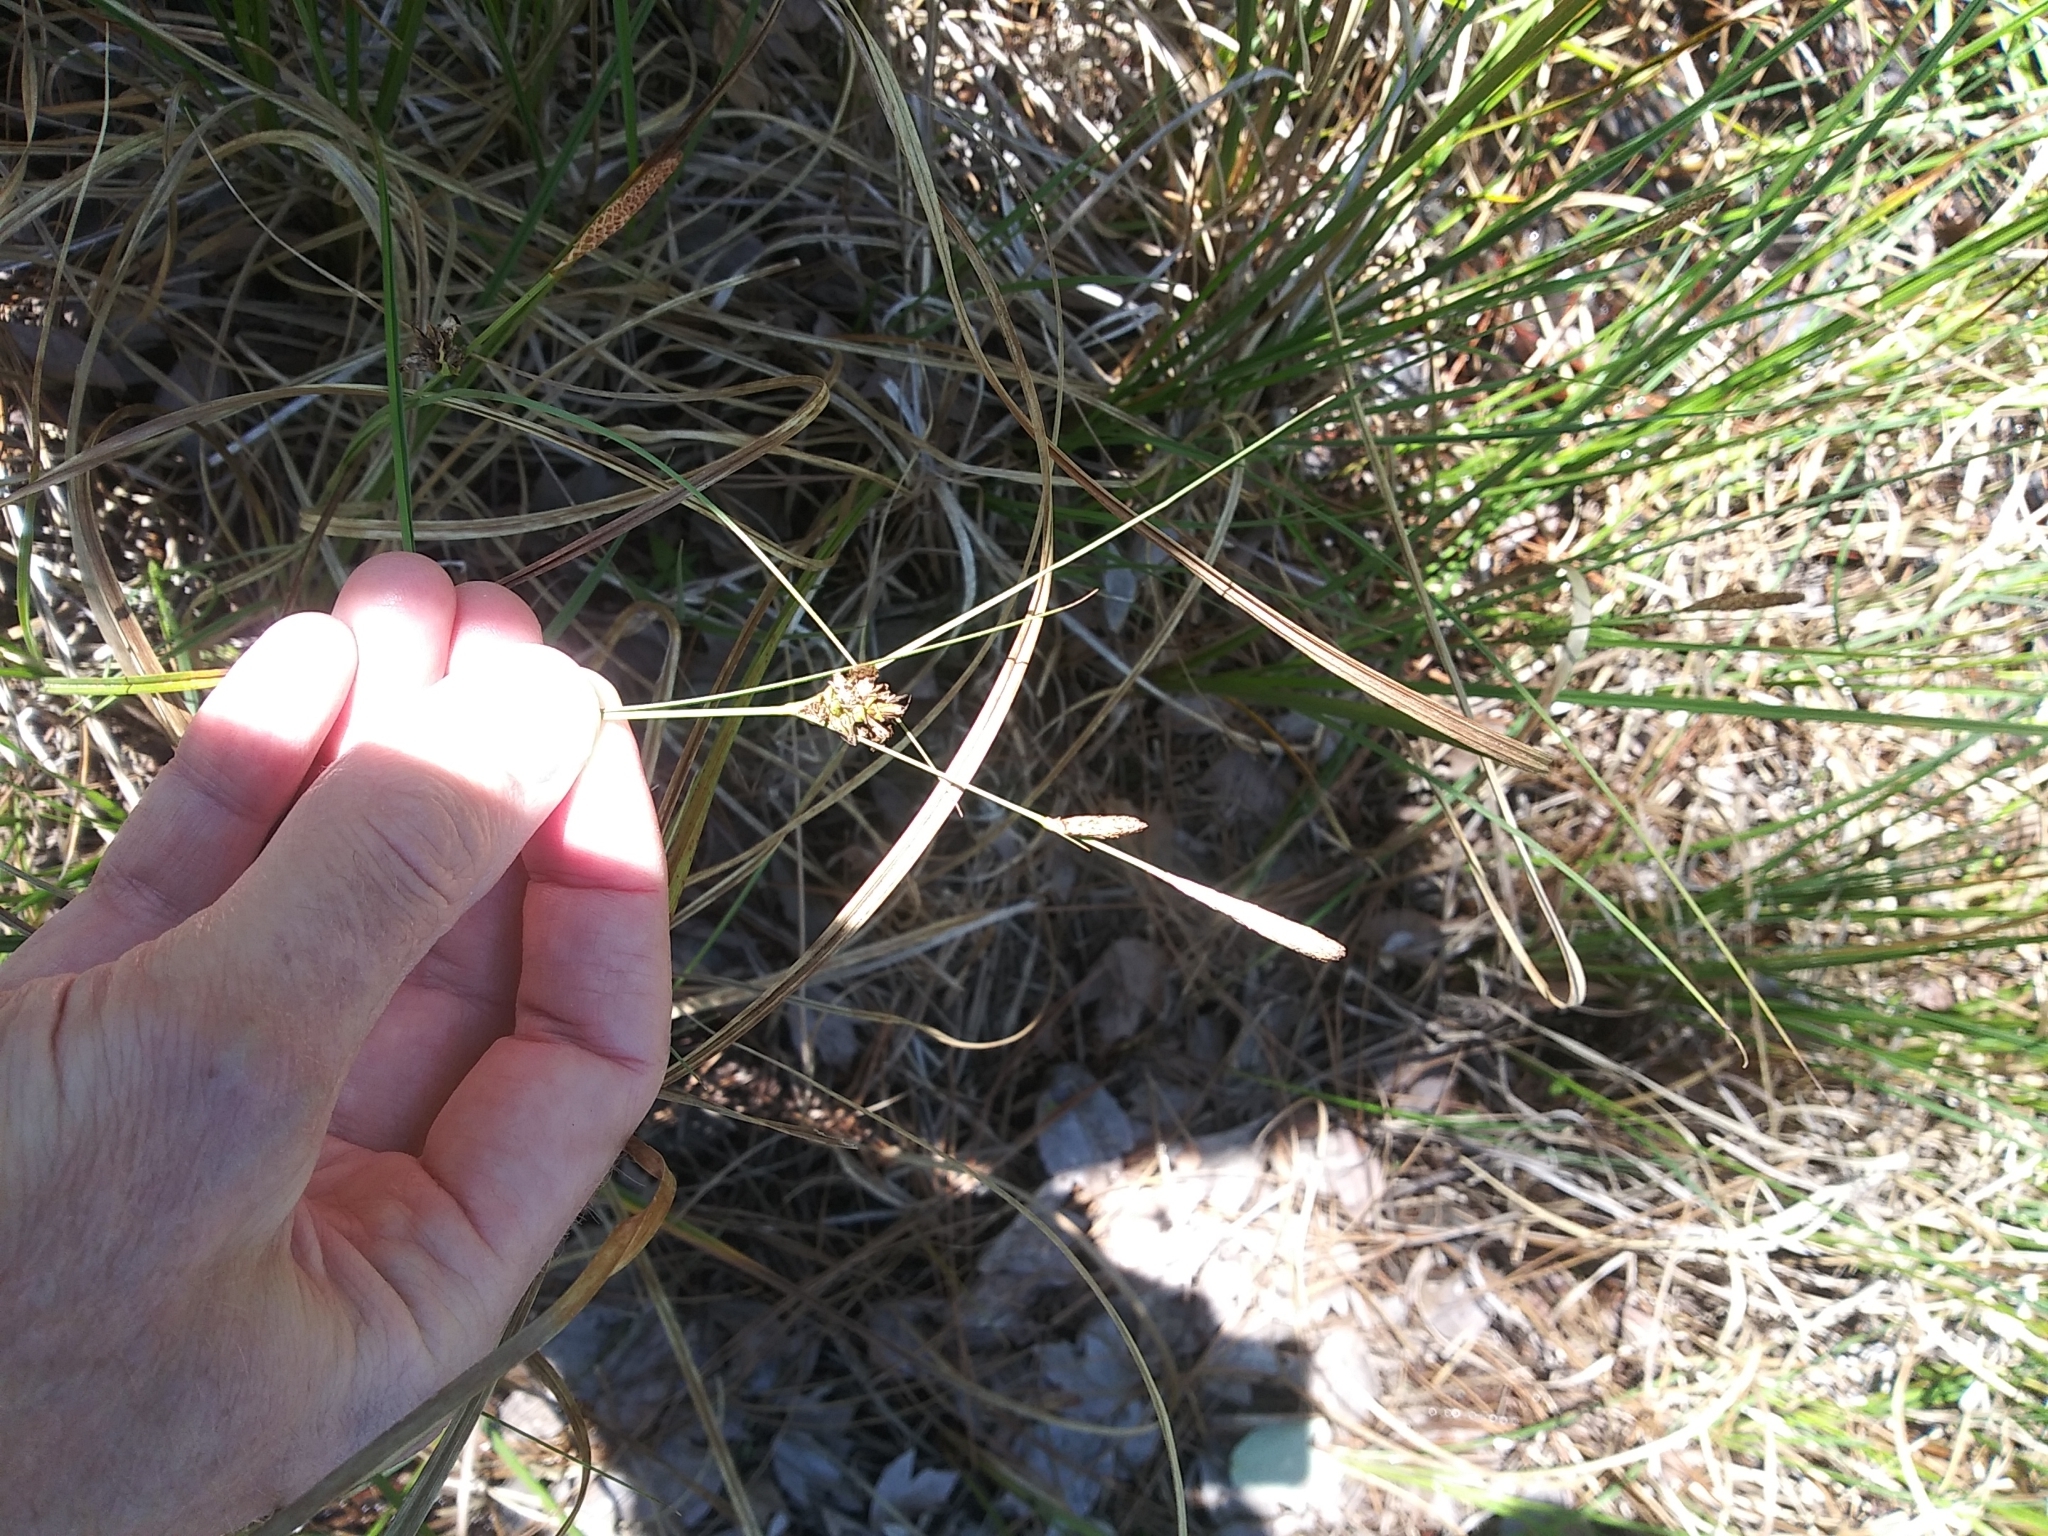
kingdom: Plantae
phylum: Tracheophyta
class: Liliopsida
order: Poales
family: Cyperaceae
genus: Carex
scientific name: Carex striata
